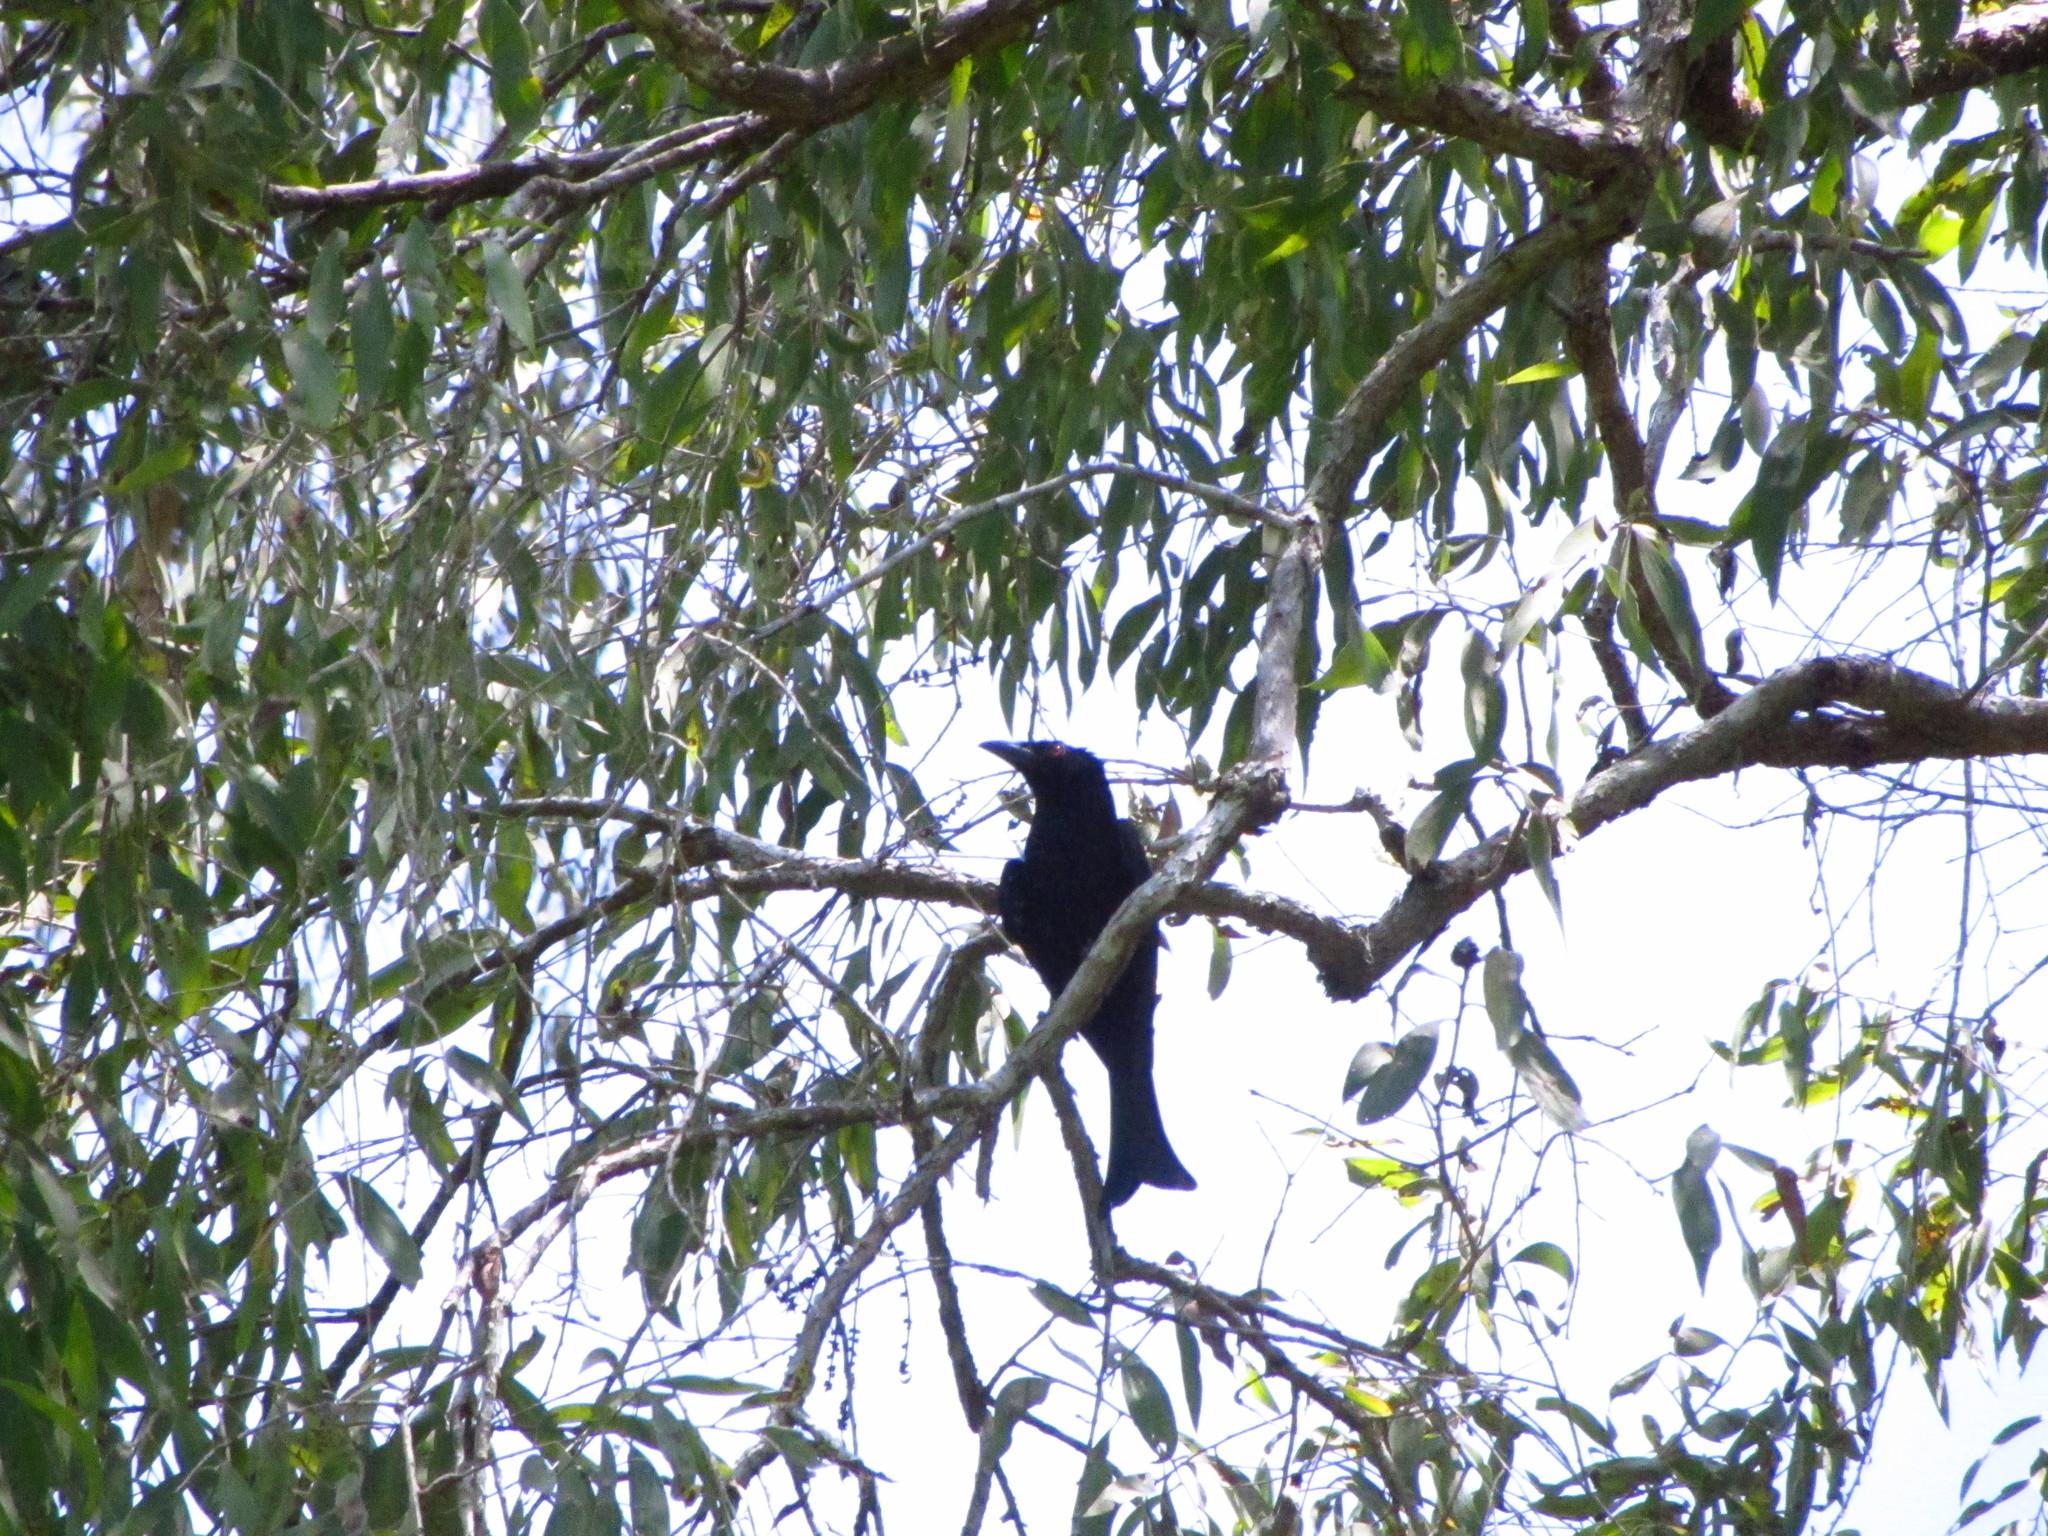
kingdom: Animalia
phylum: Chordata
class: Aves
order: Passeriformes
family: Dicruridae
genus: Dicrurus
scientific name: Dicrurus bracteatus
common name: Spangled drongo
